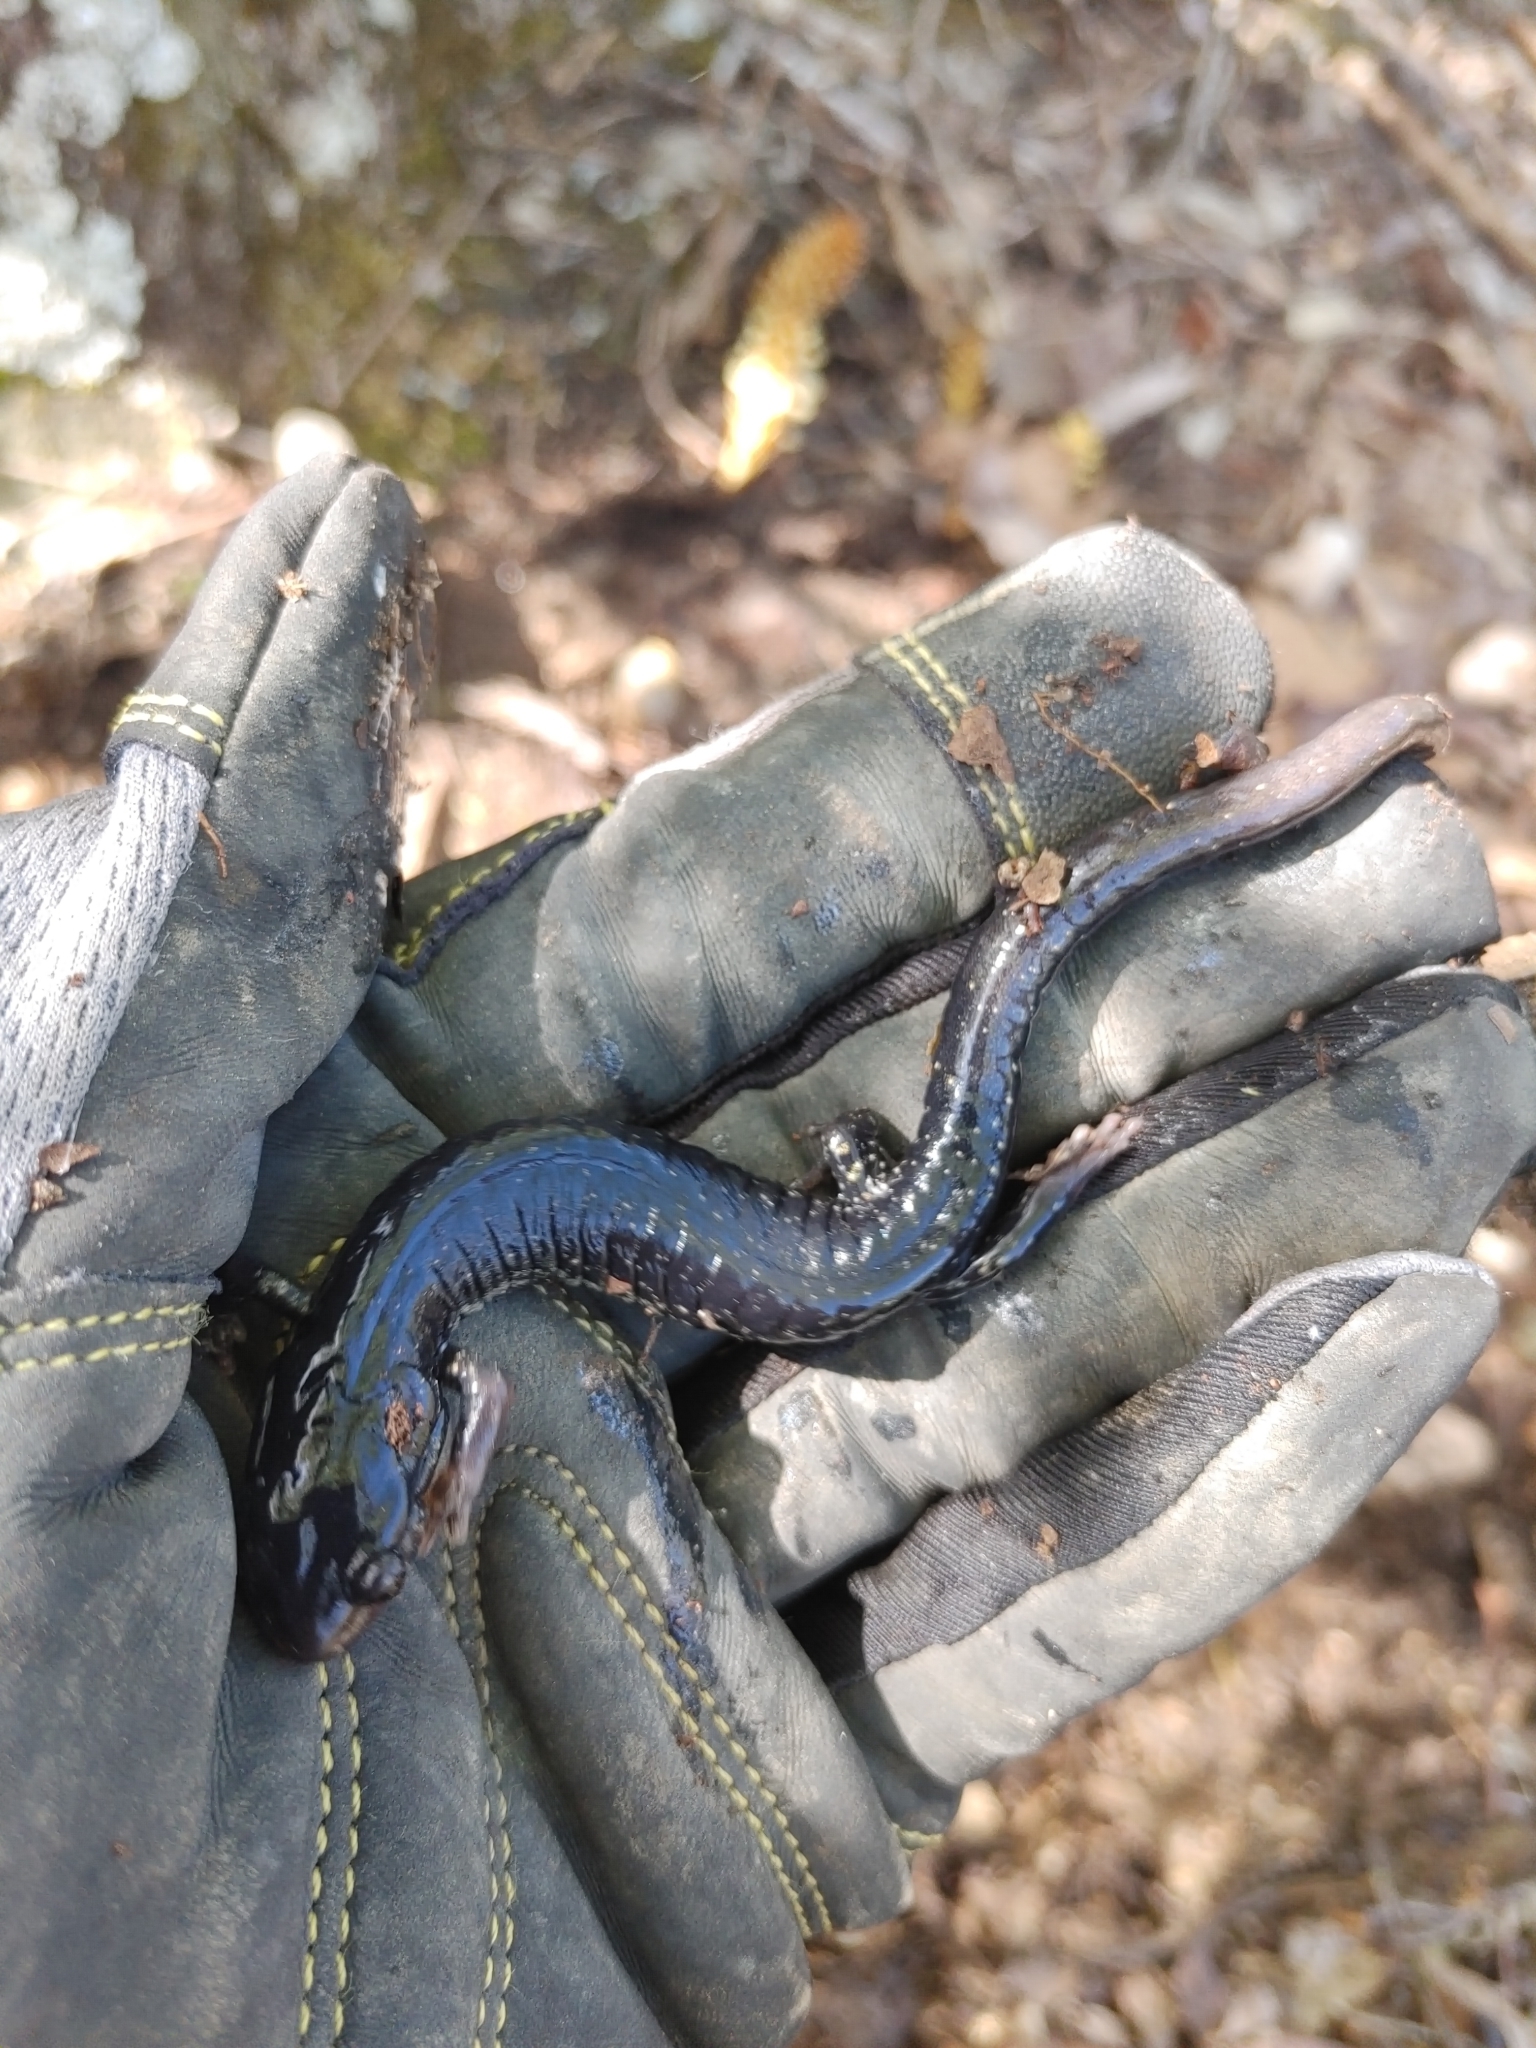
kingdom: Animalia
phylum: Chordata
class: Amphibia
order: Caudata
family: Plethodontidae
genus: Plethodon
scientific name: Plethodon glutinosus
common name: Northern slimy salamander
